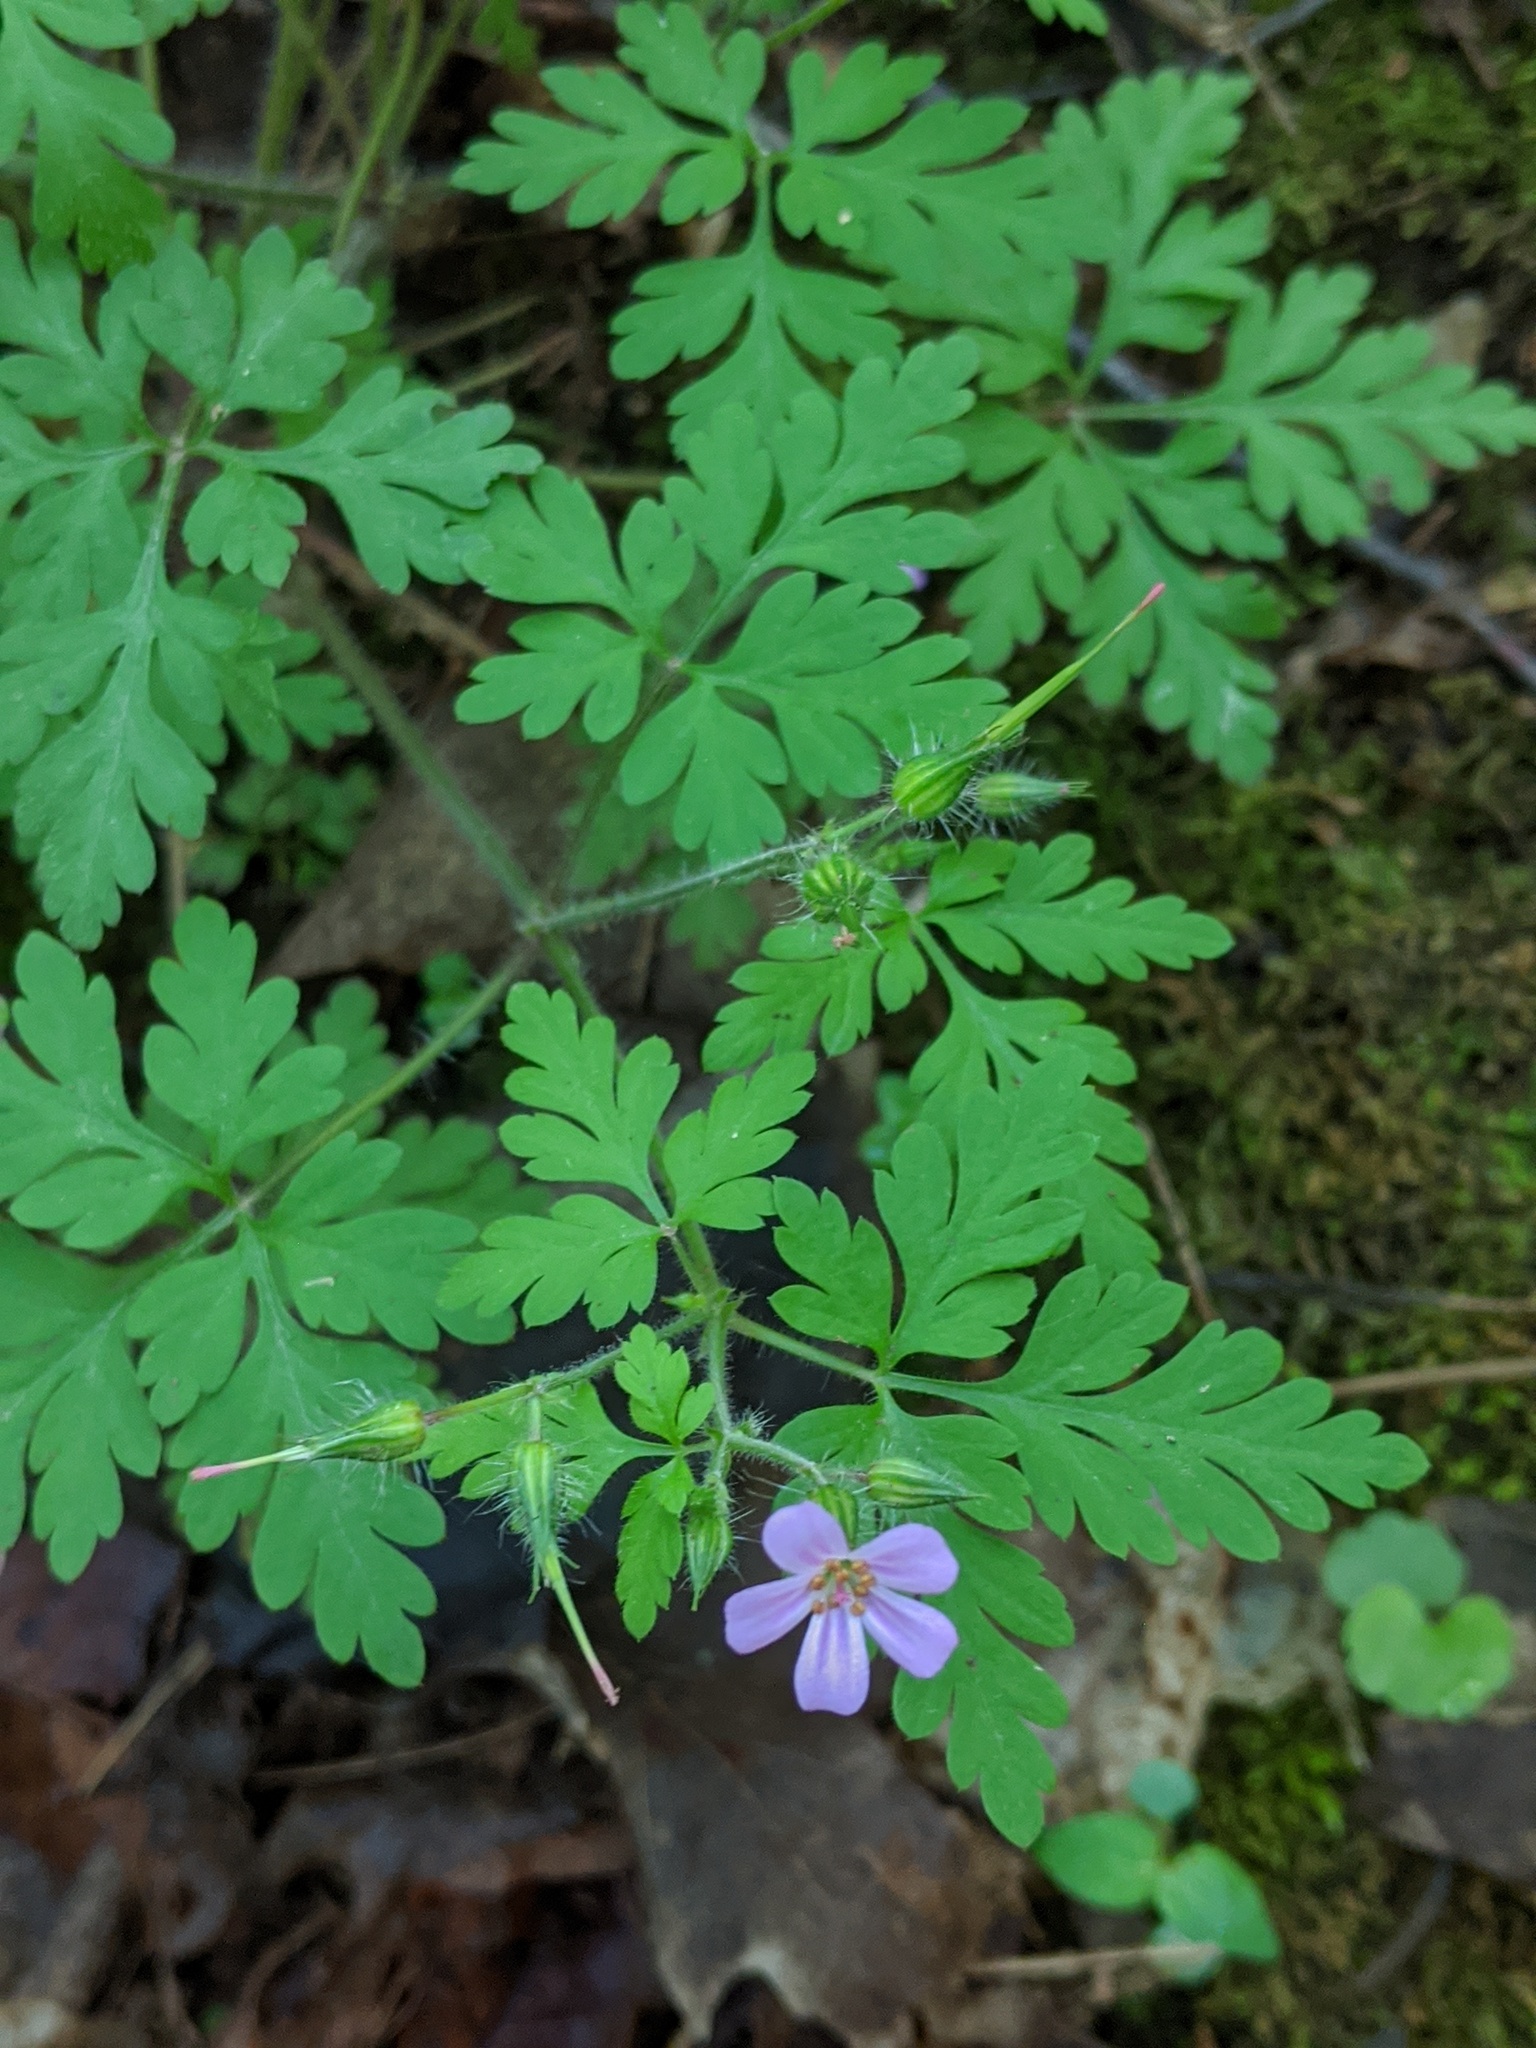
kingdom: Plantae
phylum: Tracheophyta
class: Magnoliopsida
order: Geraniales
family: Geraniaceae
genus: Geranium
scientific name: Geranium robertianum
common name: Herb-robert
